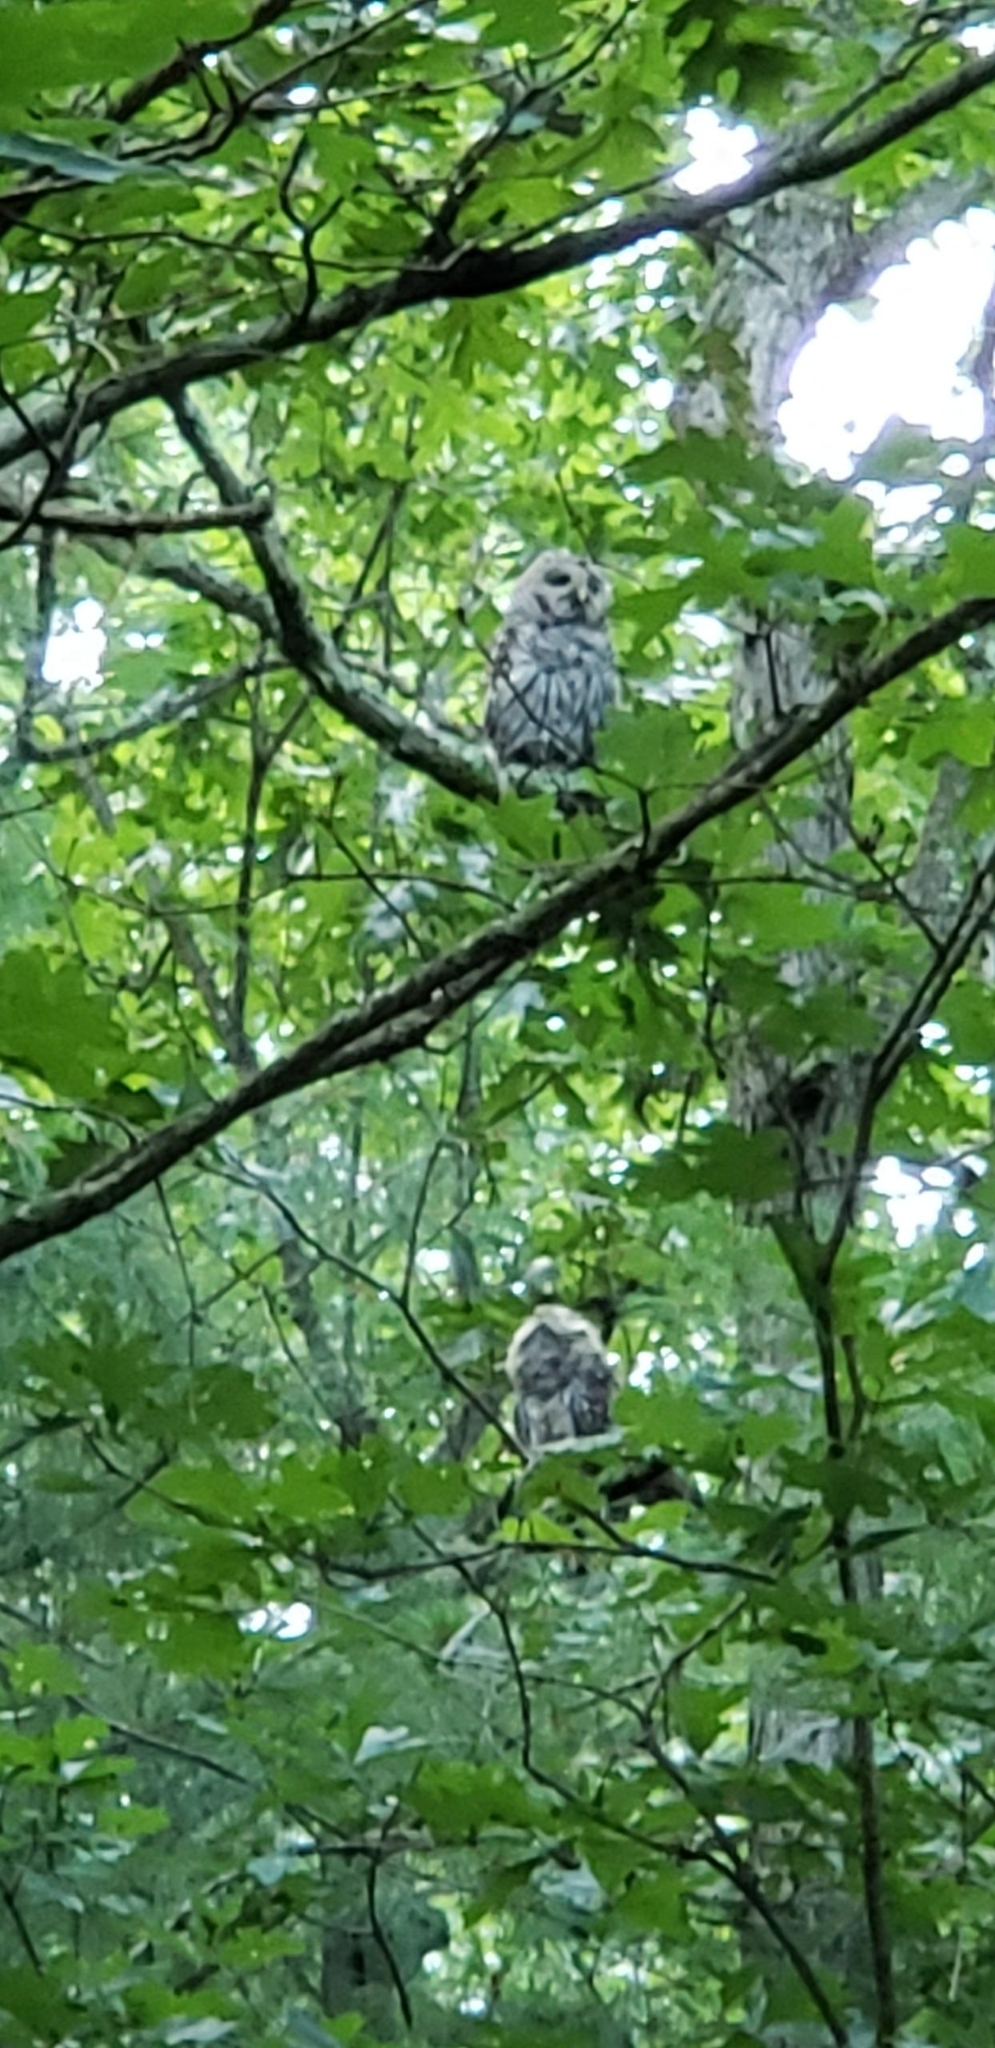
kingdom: Animalia
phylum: Chordata
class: Aves
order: Strigiformes
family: Strigidae
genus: Strix
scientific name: Strix varia
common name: Barred owl
